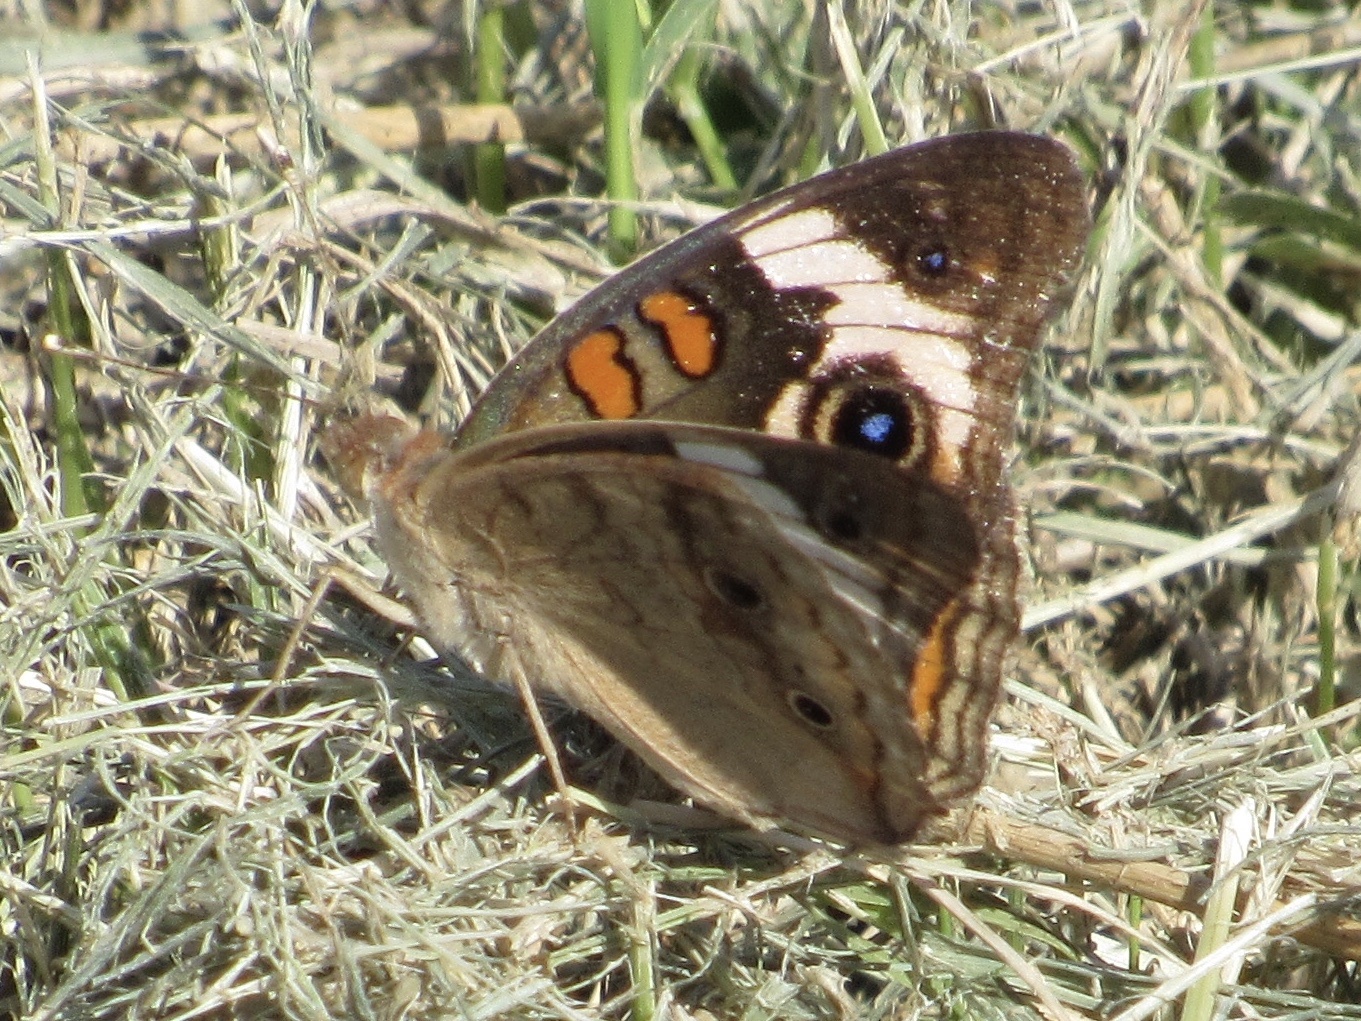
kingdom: Animalia
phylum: Arthropoda
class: Insecta
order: Lepidoptera
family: Nymphalidae
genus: Junonia
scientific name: Junonia coenia
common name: Common buckeye
